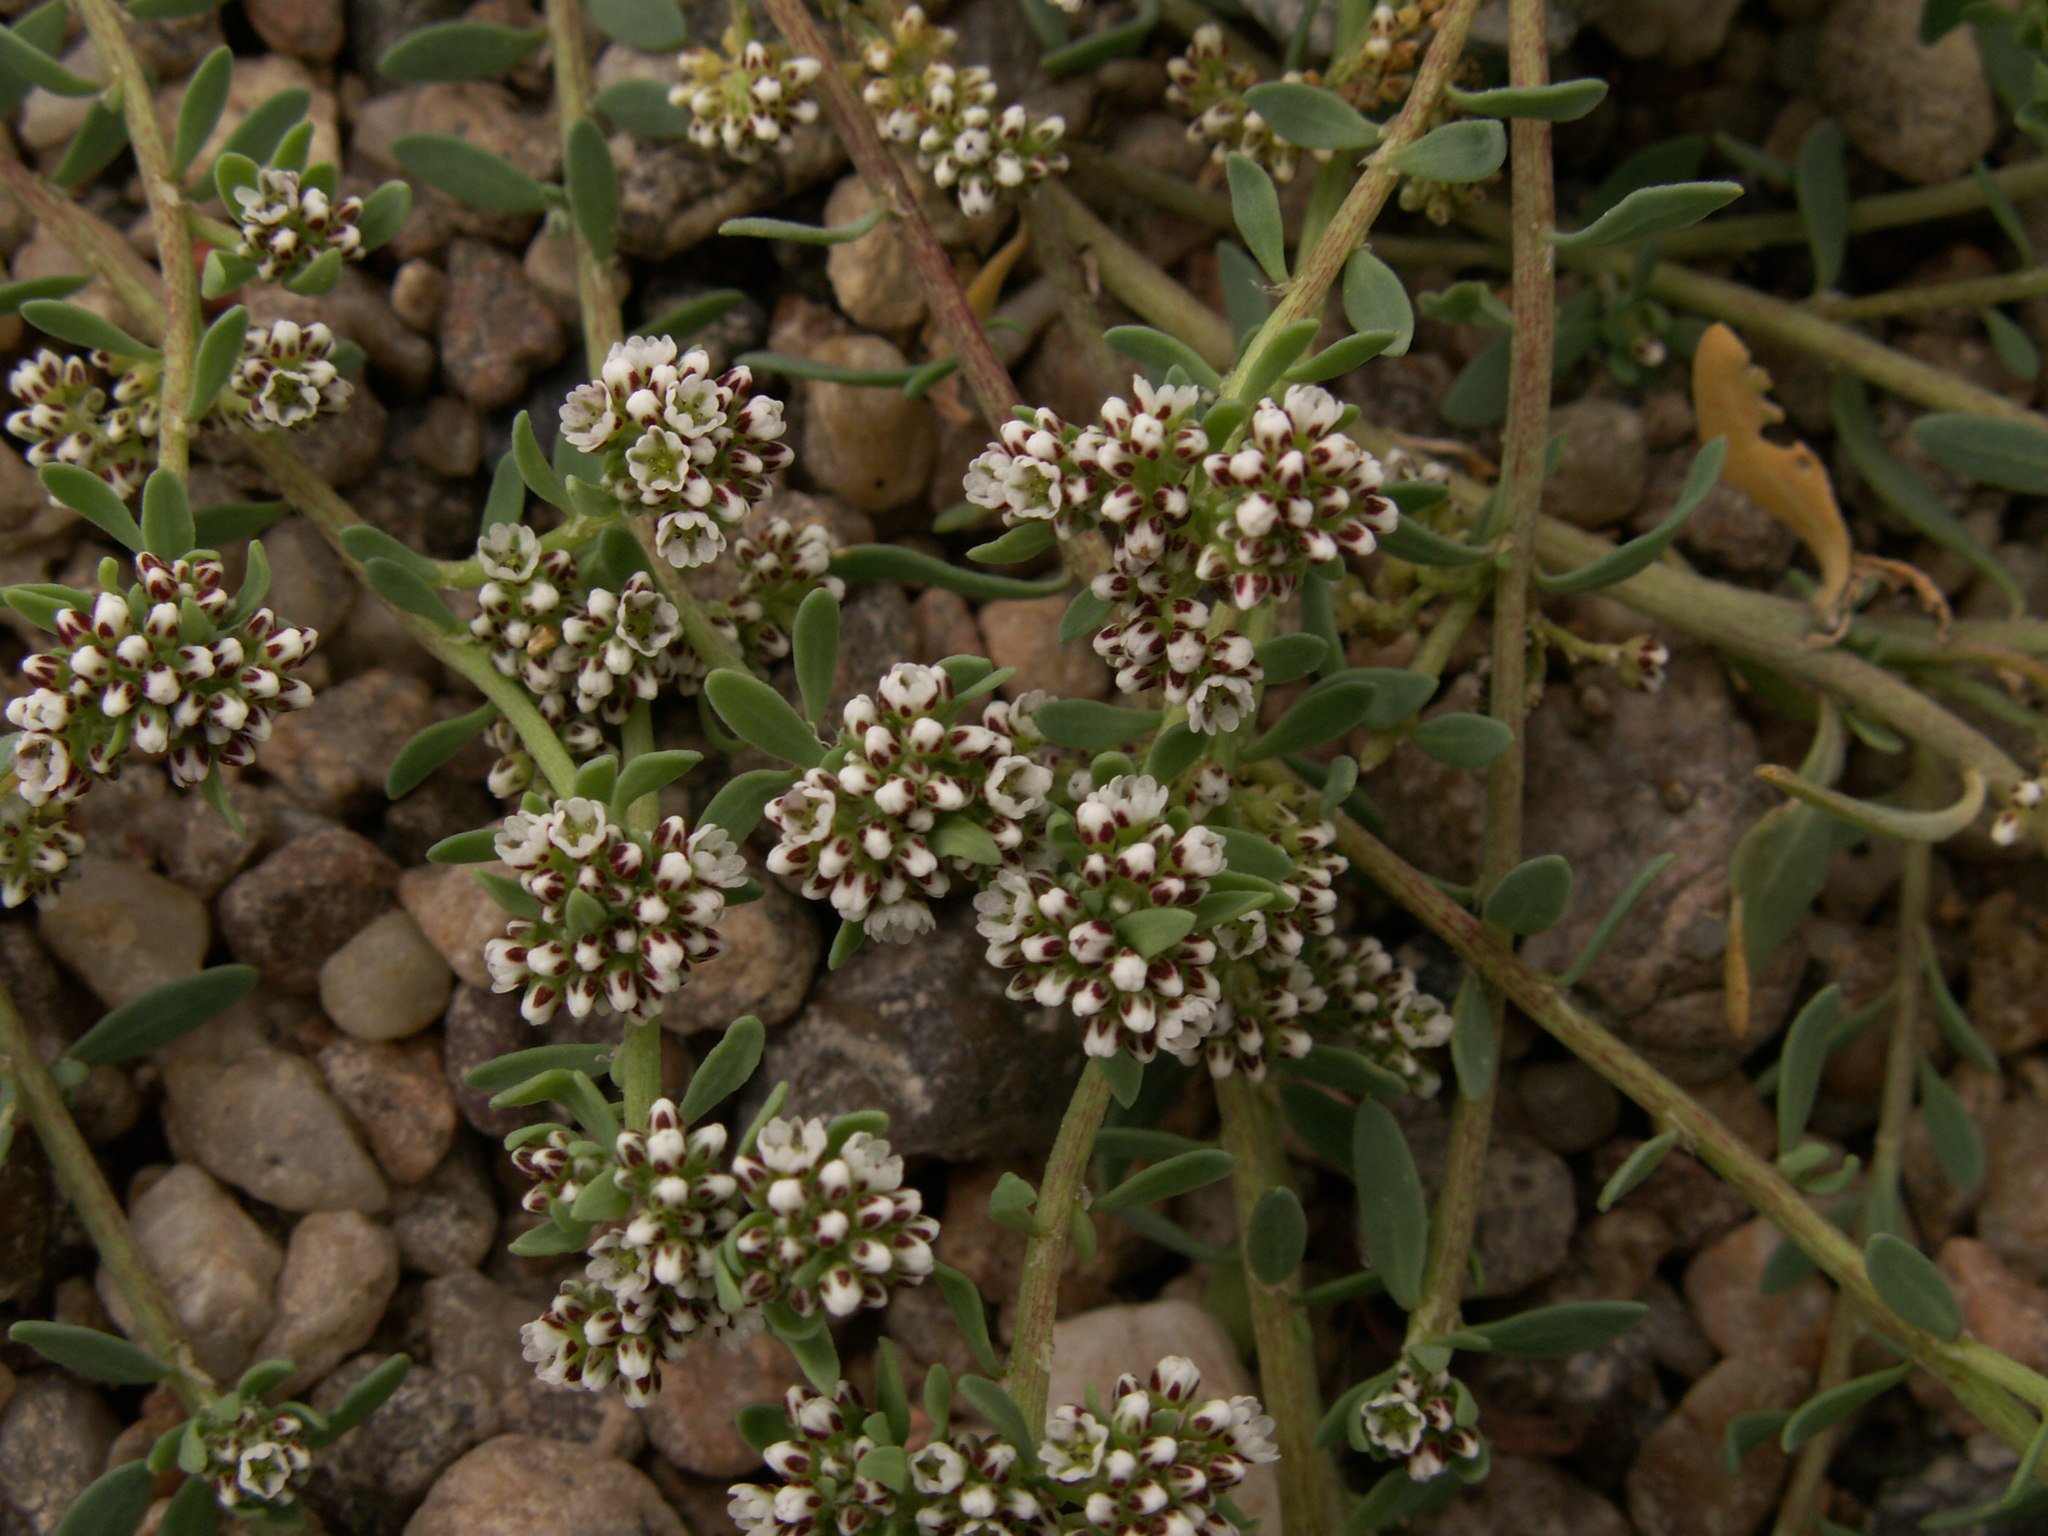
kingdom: Plantae
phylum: Tracheophyta
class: Magnoliopsida
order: Caryophyllales
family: Caryophyllaceae
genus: Corrigiola
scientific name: Corrigiola litoralis
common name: Strapwort
